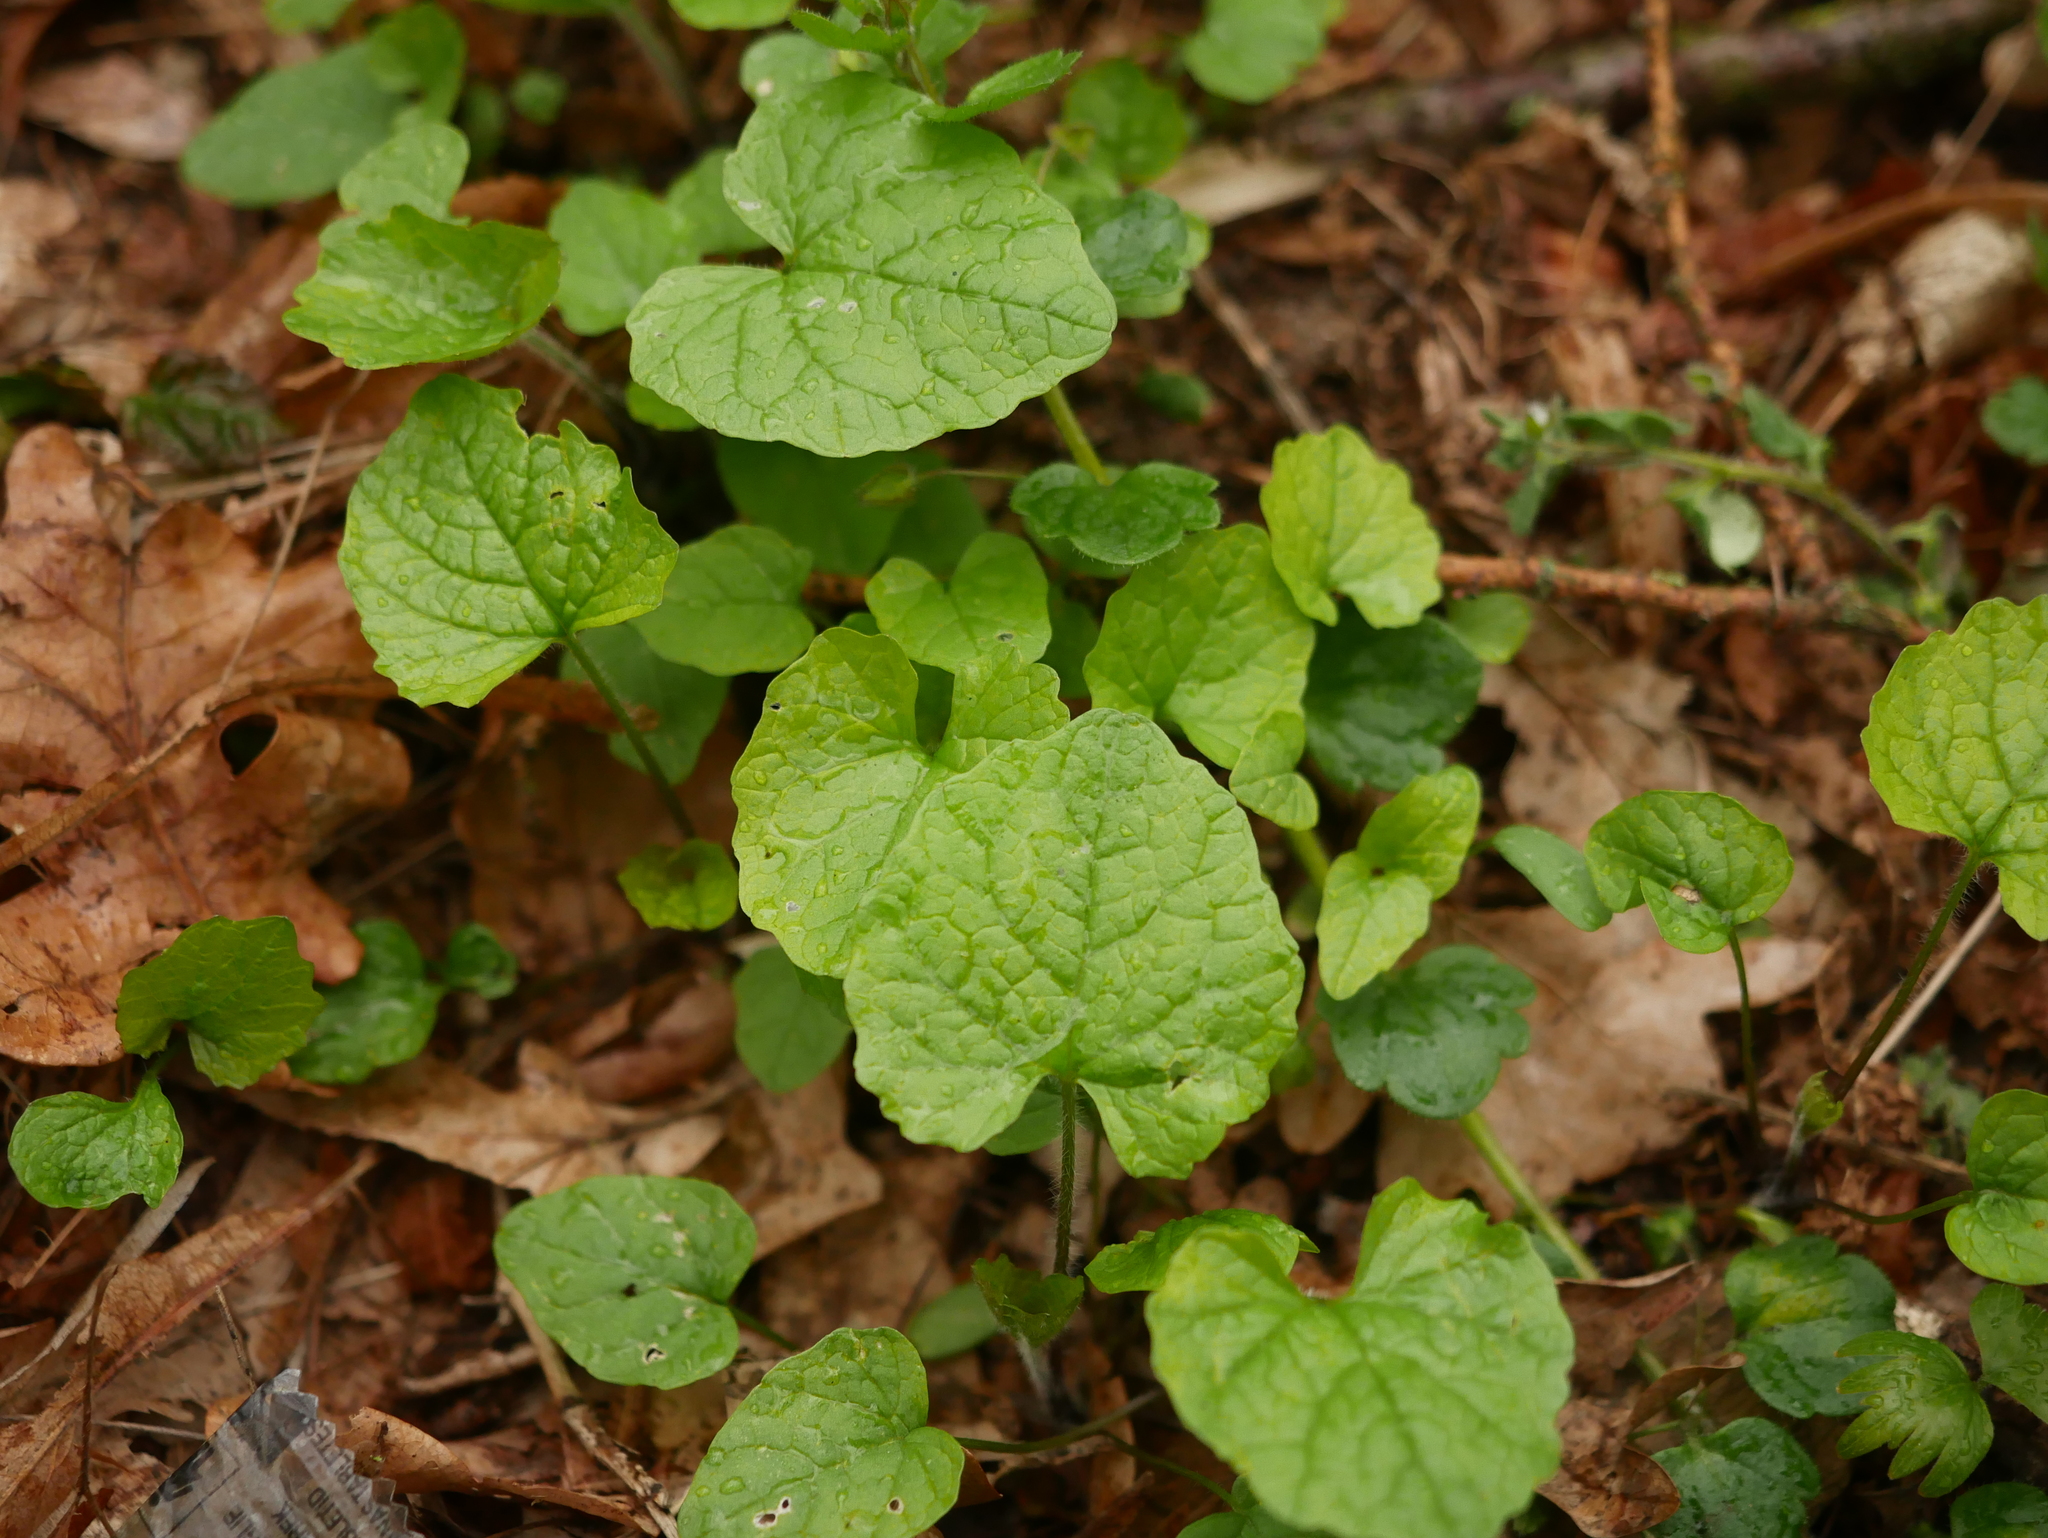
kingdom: Plantae
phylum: Tracheophyta
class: Magnoliopsida
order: Brassicales
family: Brassicaceae
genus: Alliaria
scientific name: Alliaria petiolata
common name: Garlic mustard
